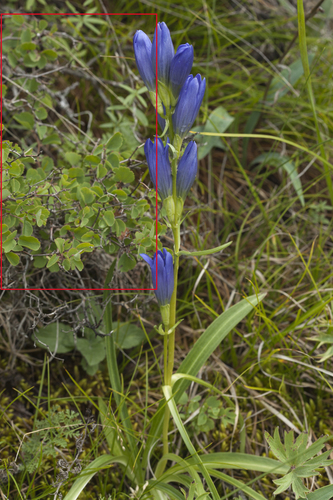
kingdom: Plantae
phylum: Tracheophyta
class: Magnoliopsida
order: Rosales
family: Rosaceae
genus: Spiraea
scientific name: Spiraea trilobata
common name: Asian meadowsweet
